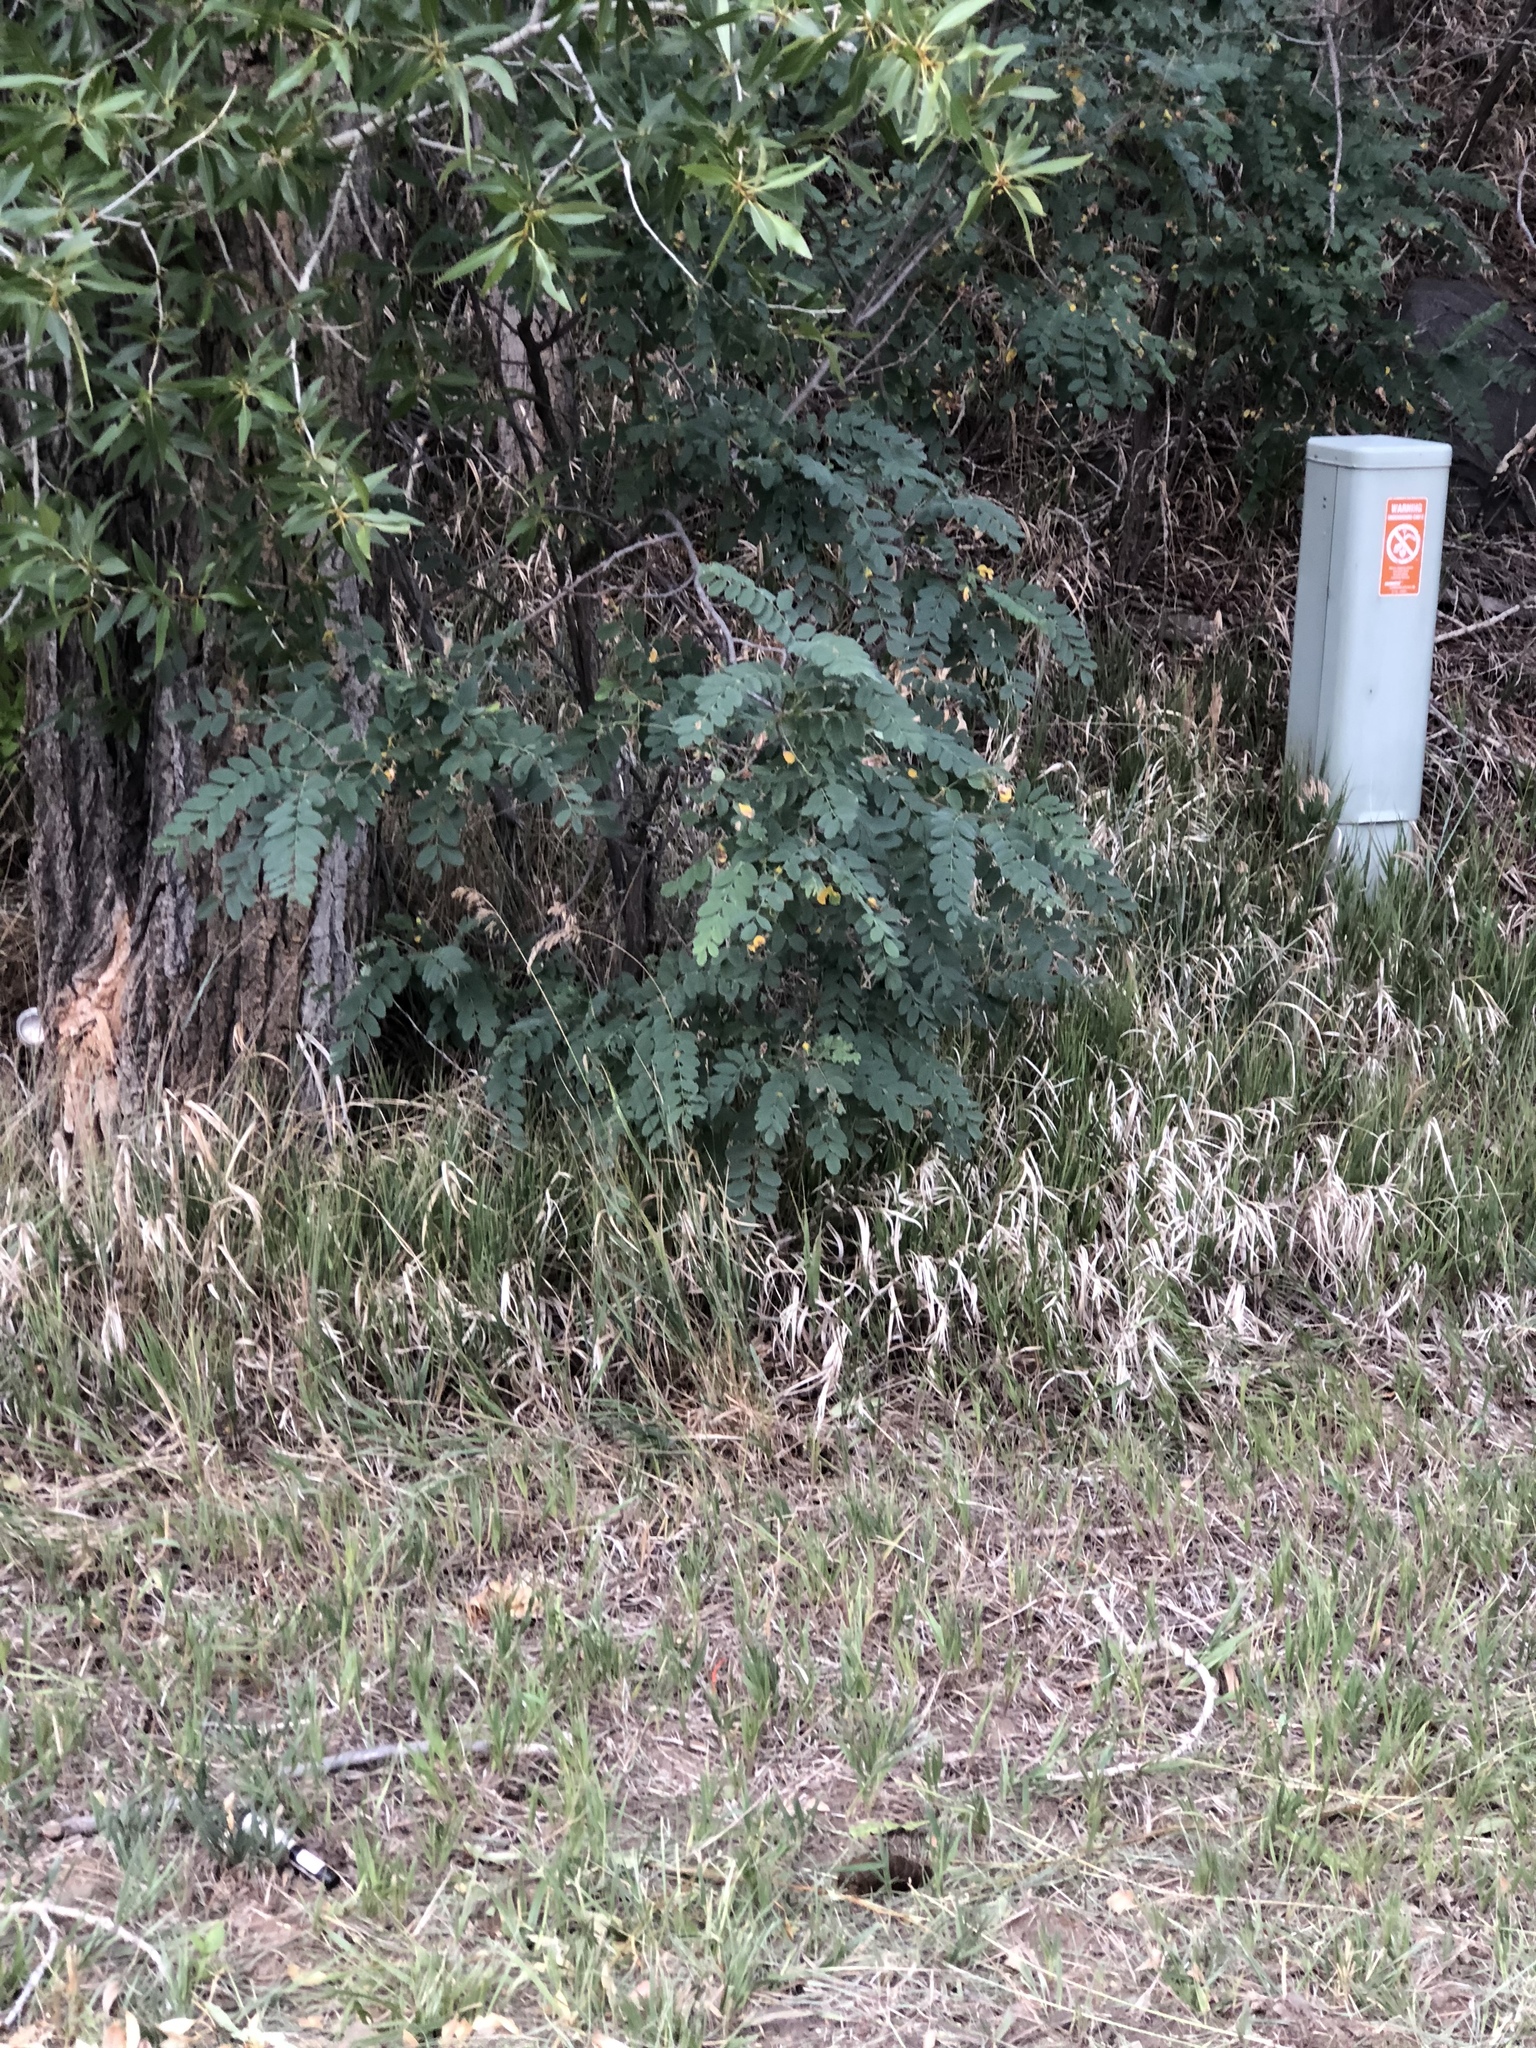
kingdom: Plantae
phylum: Tracheophyta
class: Magnoliopsida
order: Fabales
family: Fabaceae
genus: Robinia
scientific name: Robinia neomexicana
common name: New mexico locust
